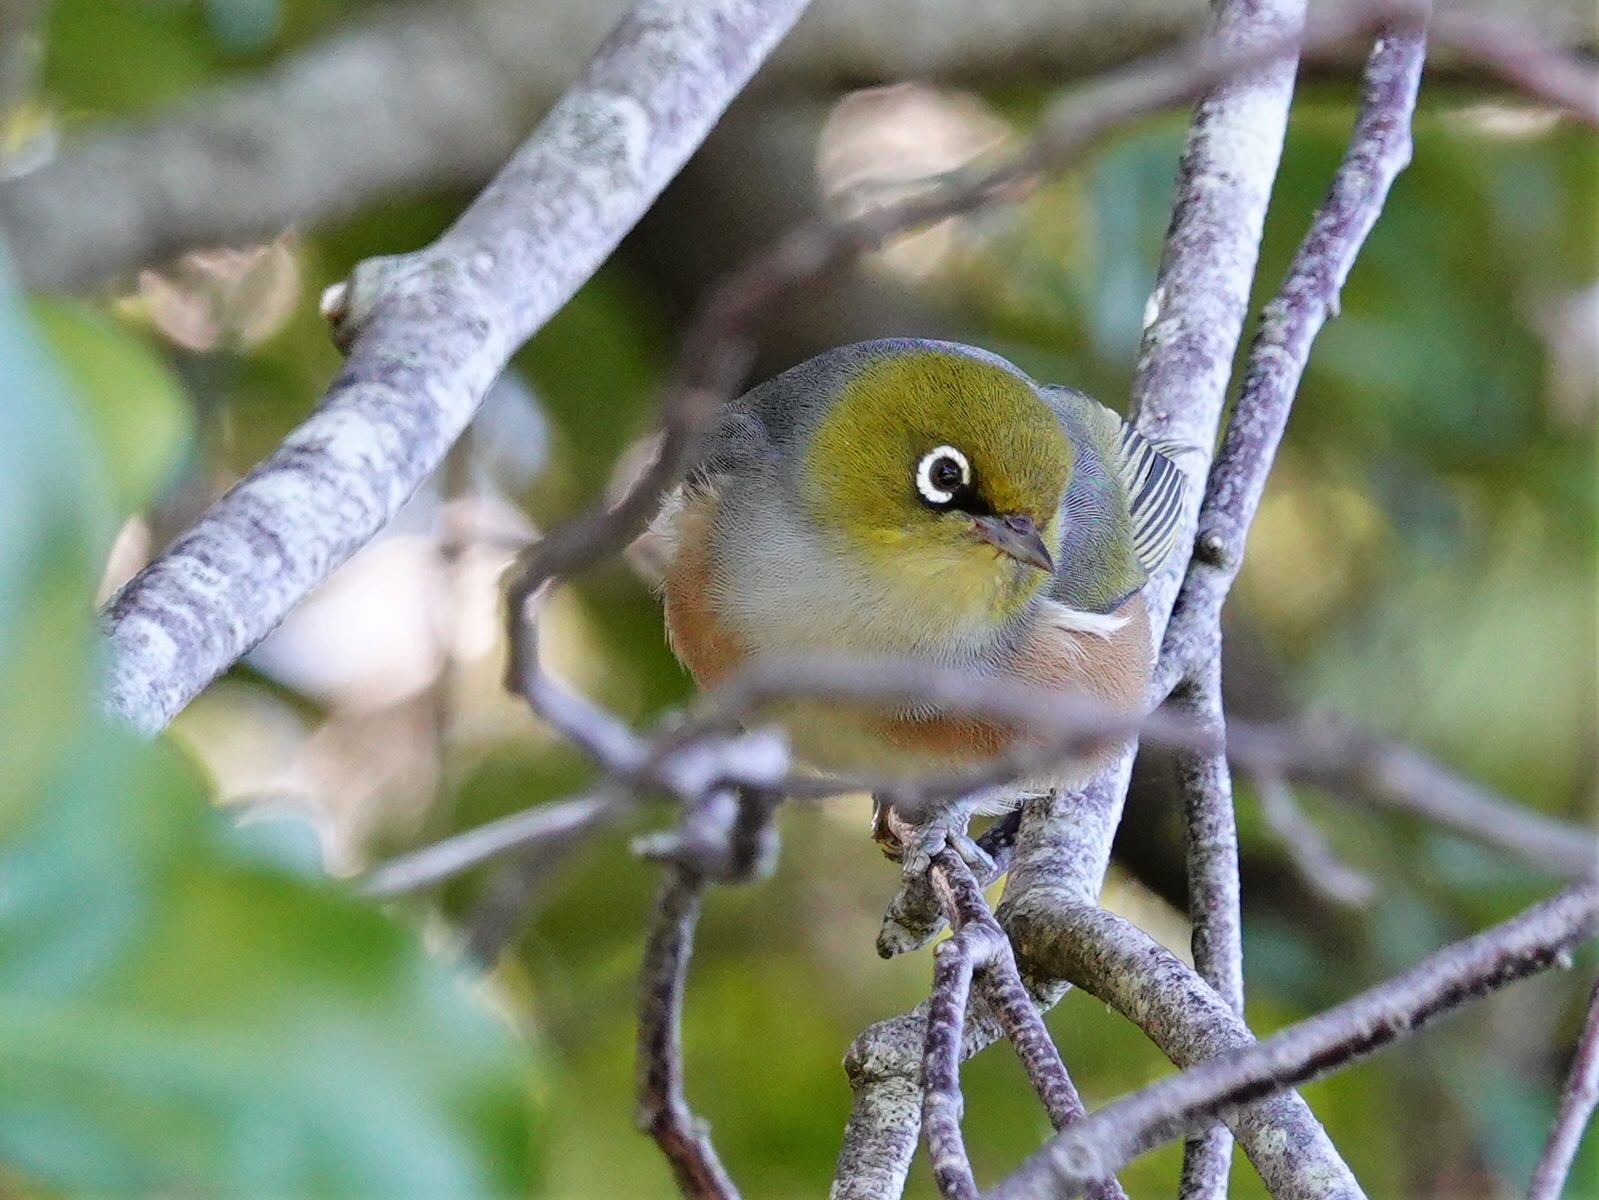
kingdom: Animalia
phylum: Chordata
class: Aves
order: Passeriformes
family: Zosteropidae
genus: Zosterops
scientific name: Zosterops lateralis
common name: Silvereye
